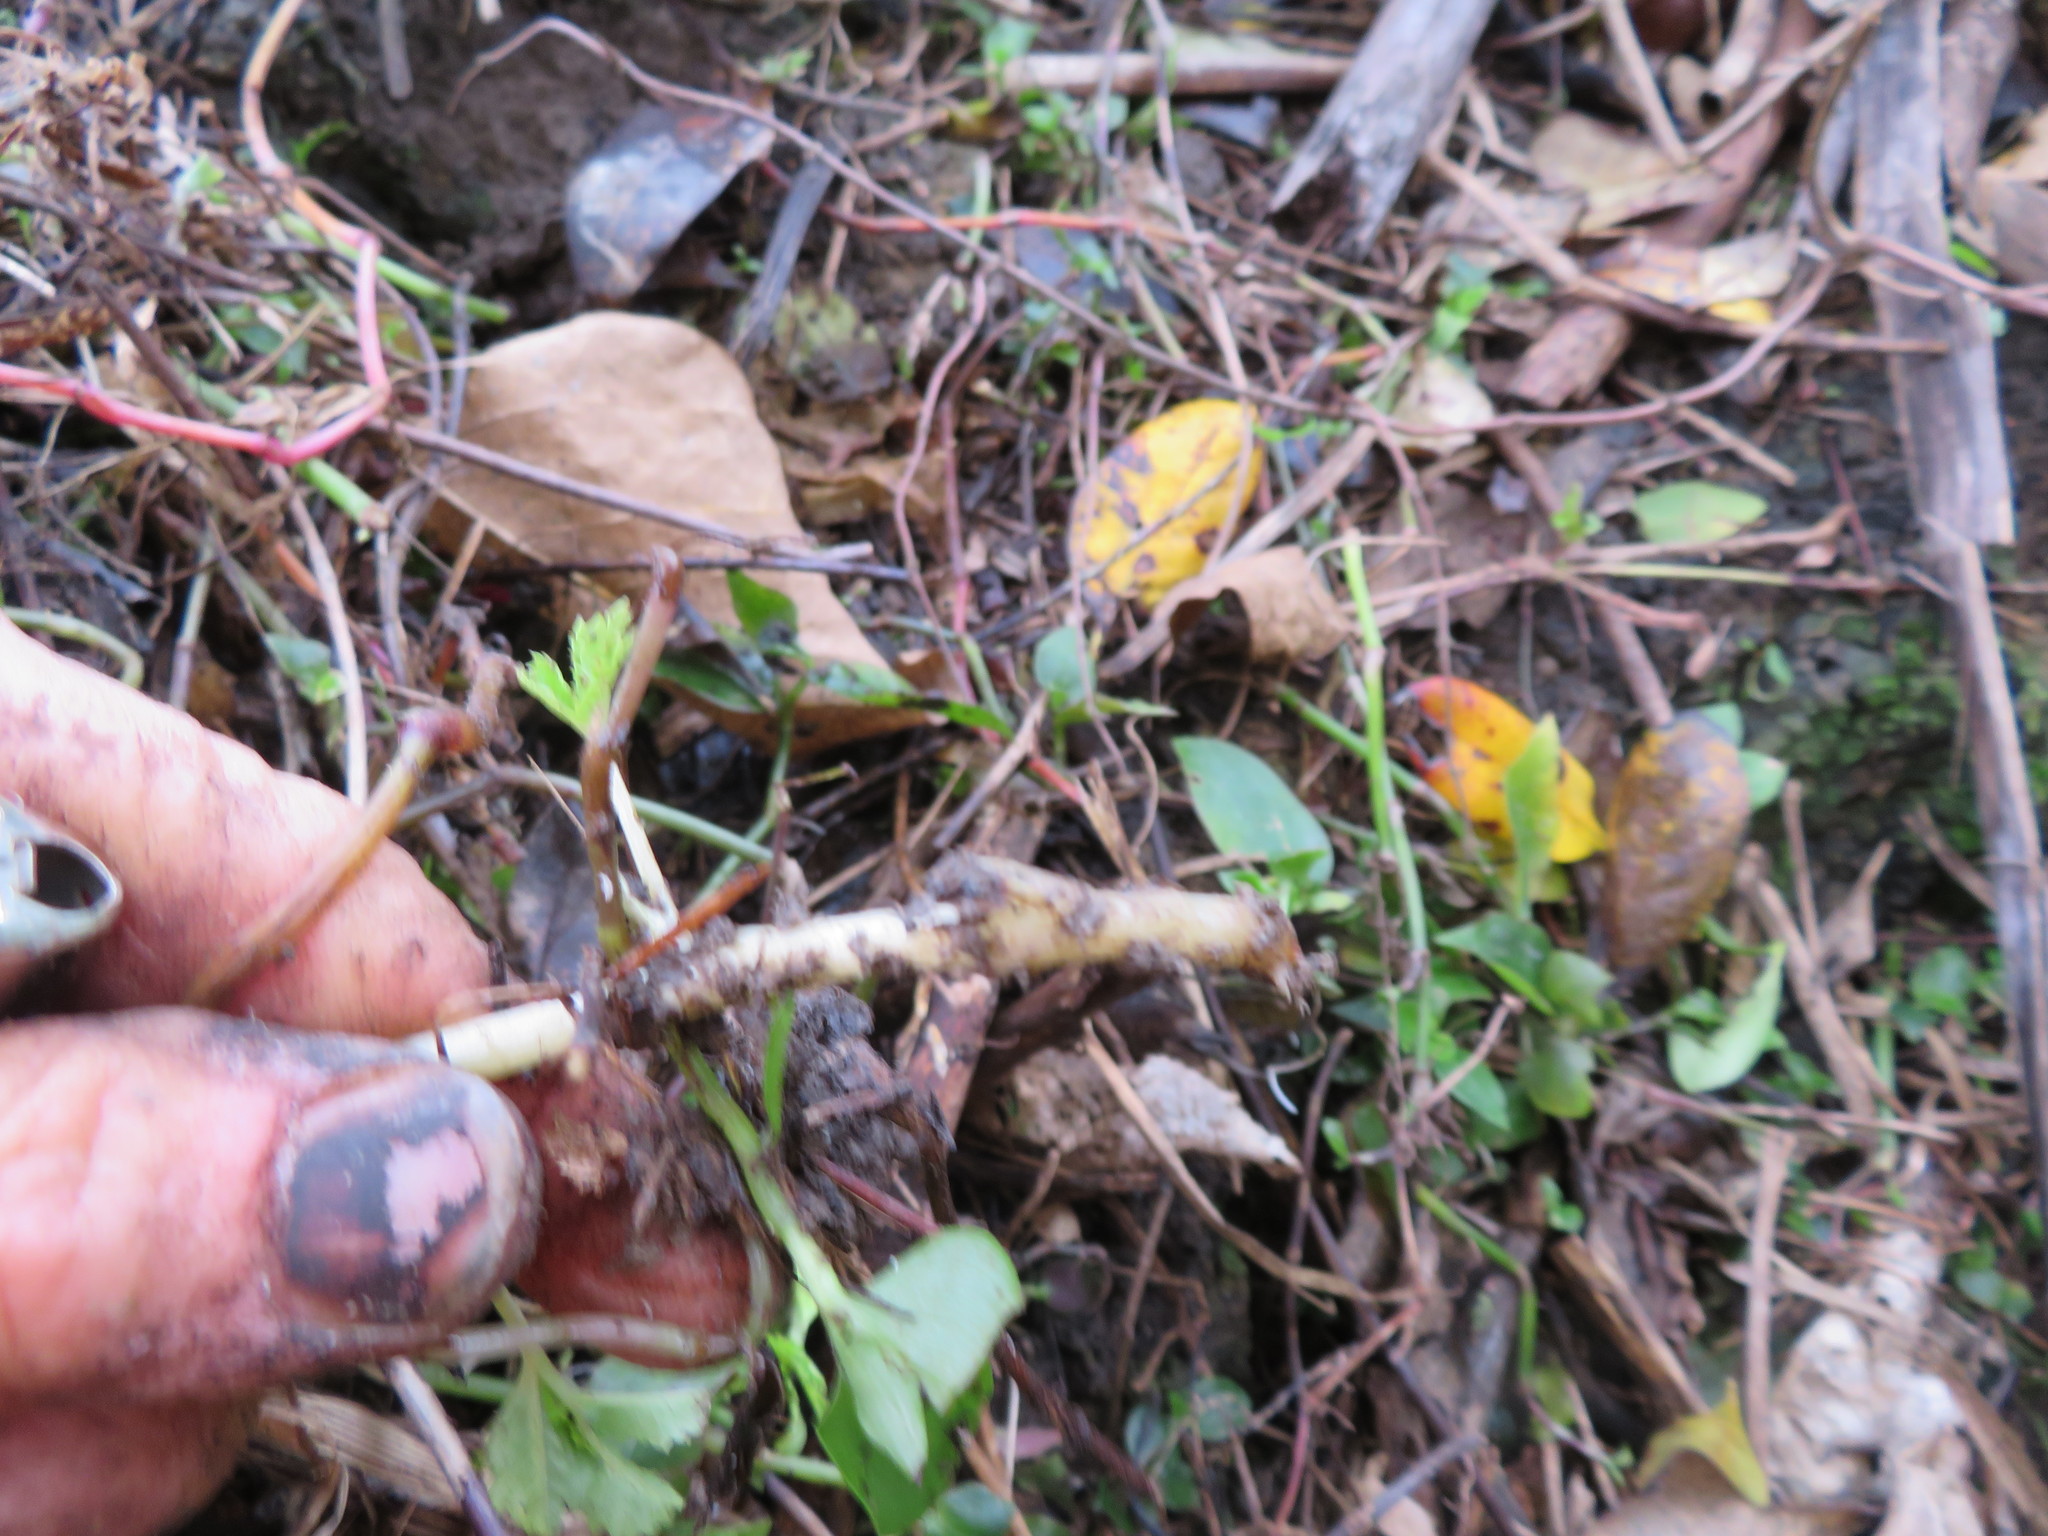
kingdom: Plantae
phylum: Tracheophyta
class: Magnoliopsida
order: Geraniales
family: Melianthaceae
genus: Melianthus
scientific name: Melianthus major
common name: Honey-flower
